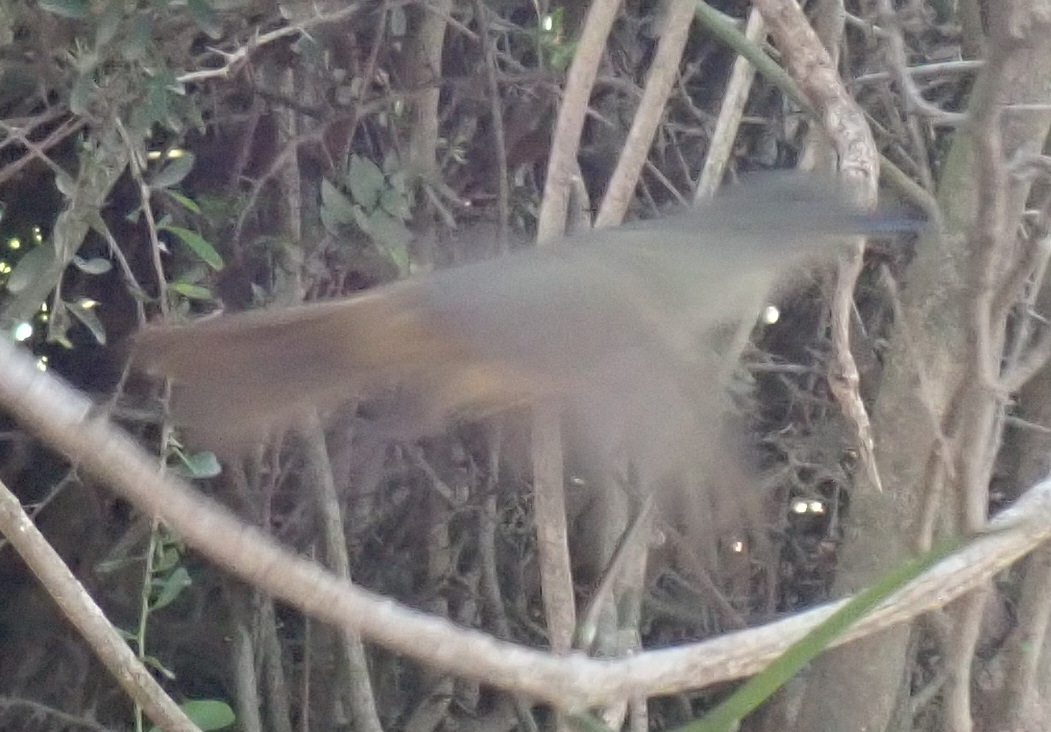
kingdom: Animalia
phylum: Chordata
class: Aves
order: Passeriformes
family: Pycnonotidae
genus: Andropadus
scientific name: Andropadus importunus
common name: Sombre greenbul
